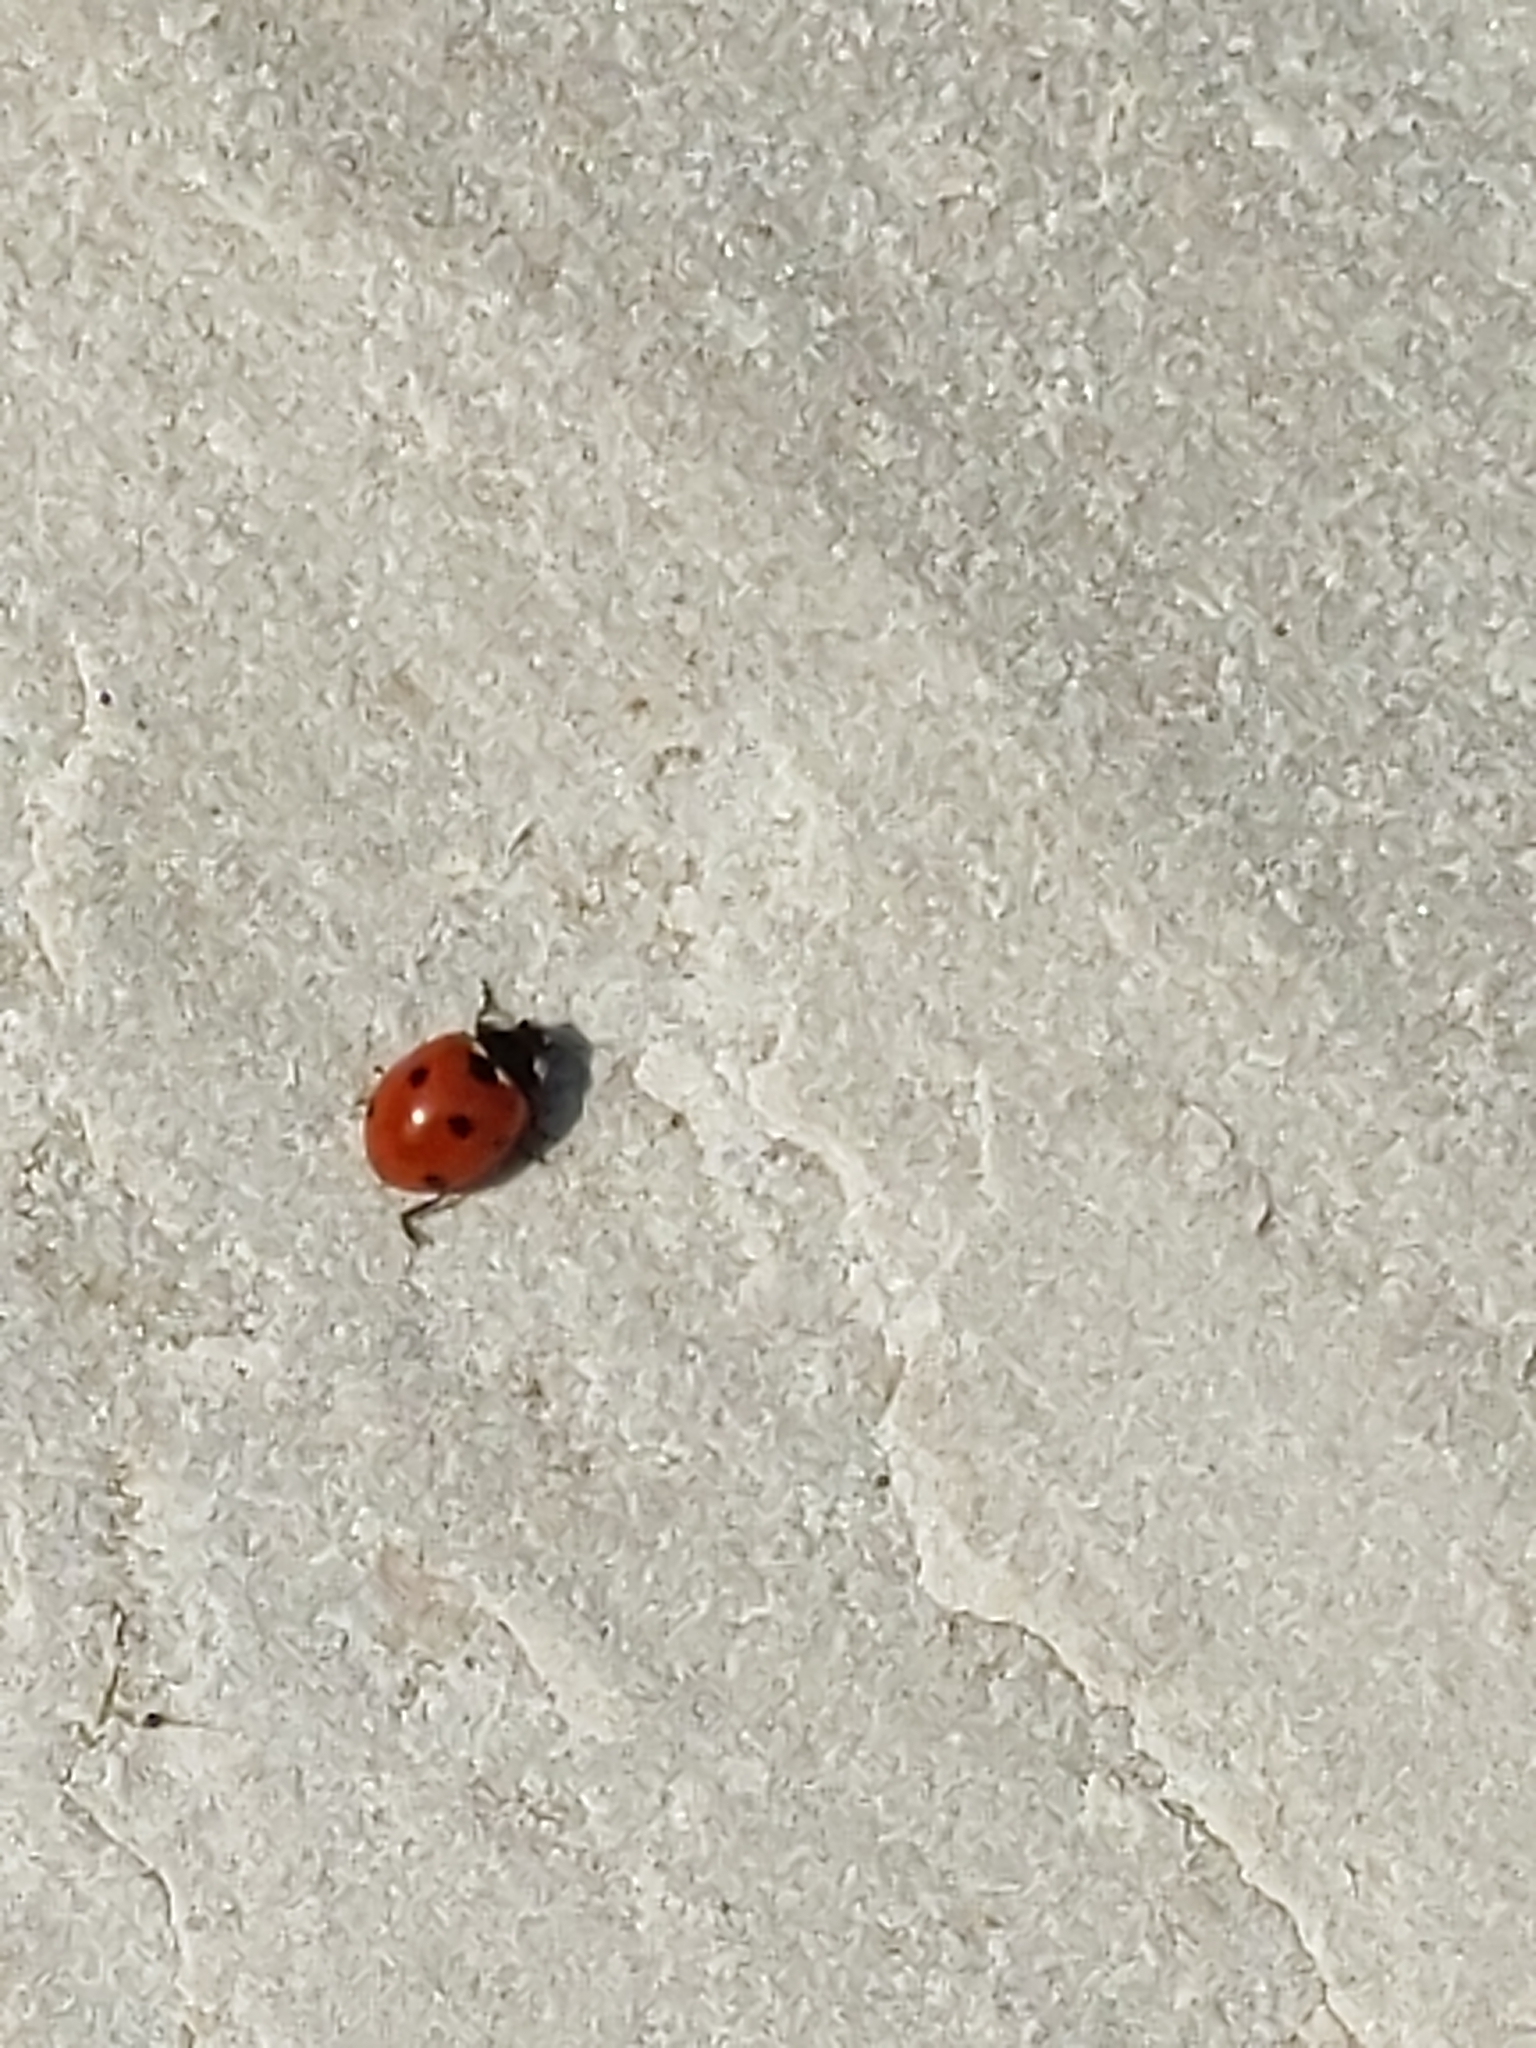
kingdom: Animalia
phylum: Arthropoda
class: Insecta
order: Coleoptera
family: Coccinellidae
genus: Coccinella
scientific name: Coccinella septempunctata
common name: Sevenspotted lady beetle
